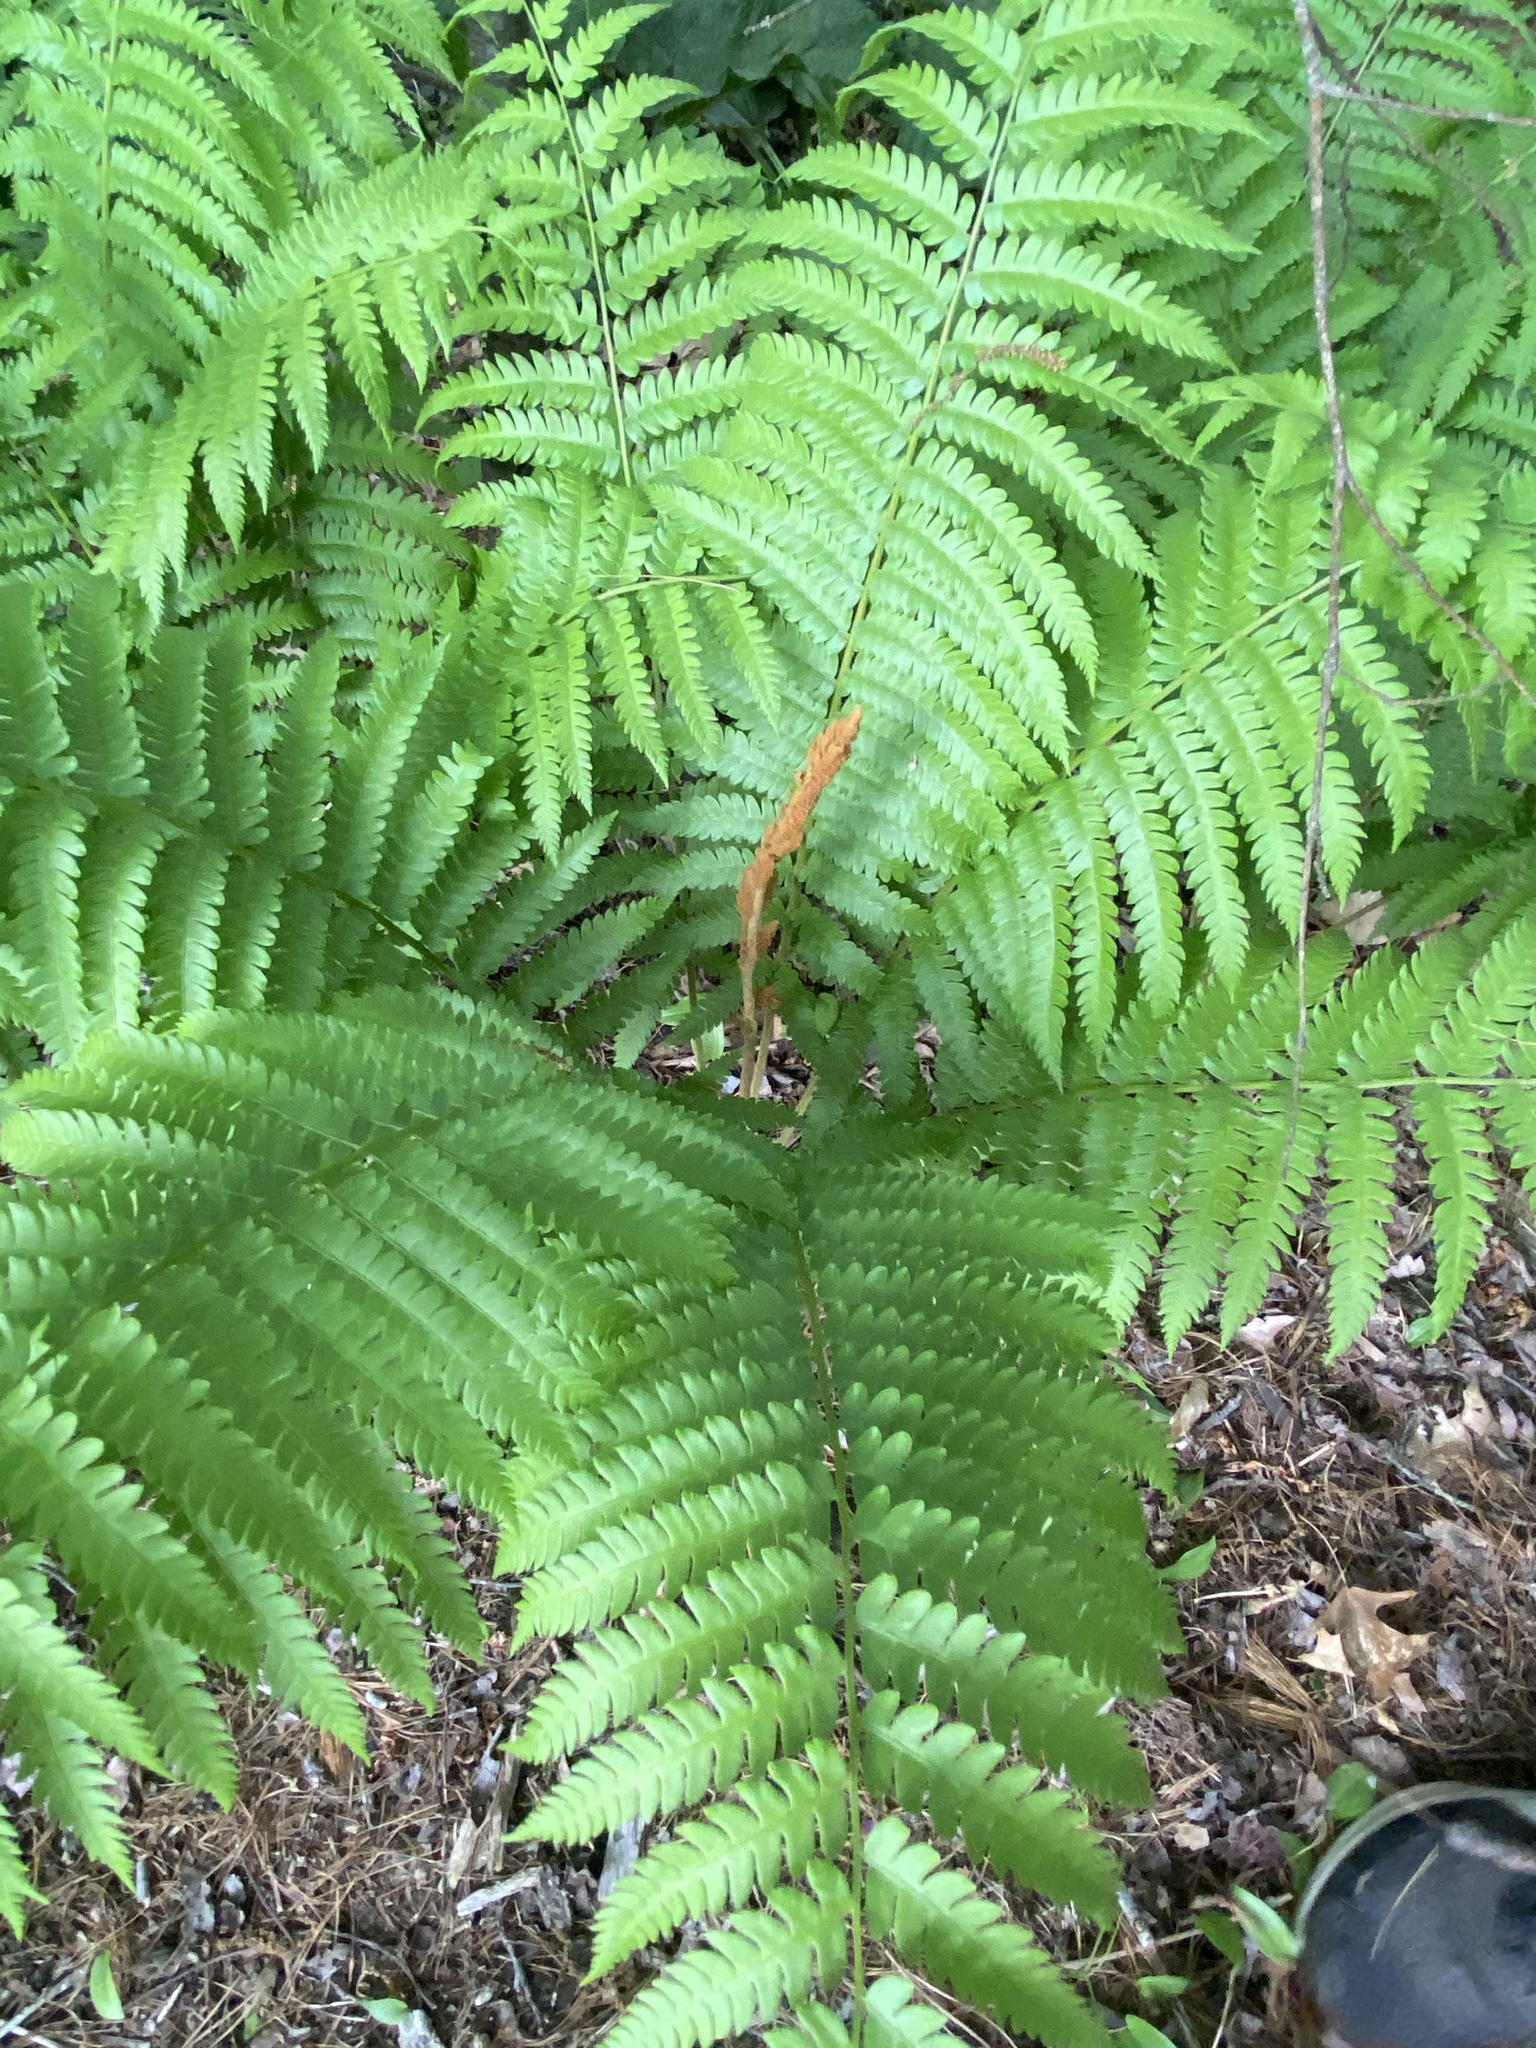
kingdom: Plantae
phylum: Tracheophyta
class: Polypodiopsida
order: Osmundales
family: Osmundaceae
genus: Osmundastrum
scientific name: Osmundastrum cinnamomeum
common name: Cinnamon fern
